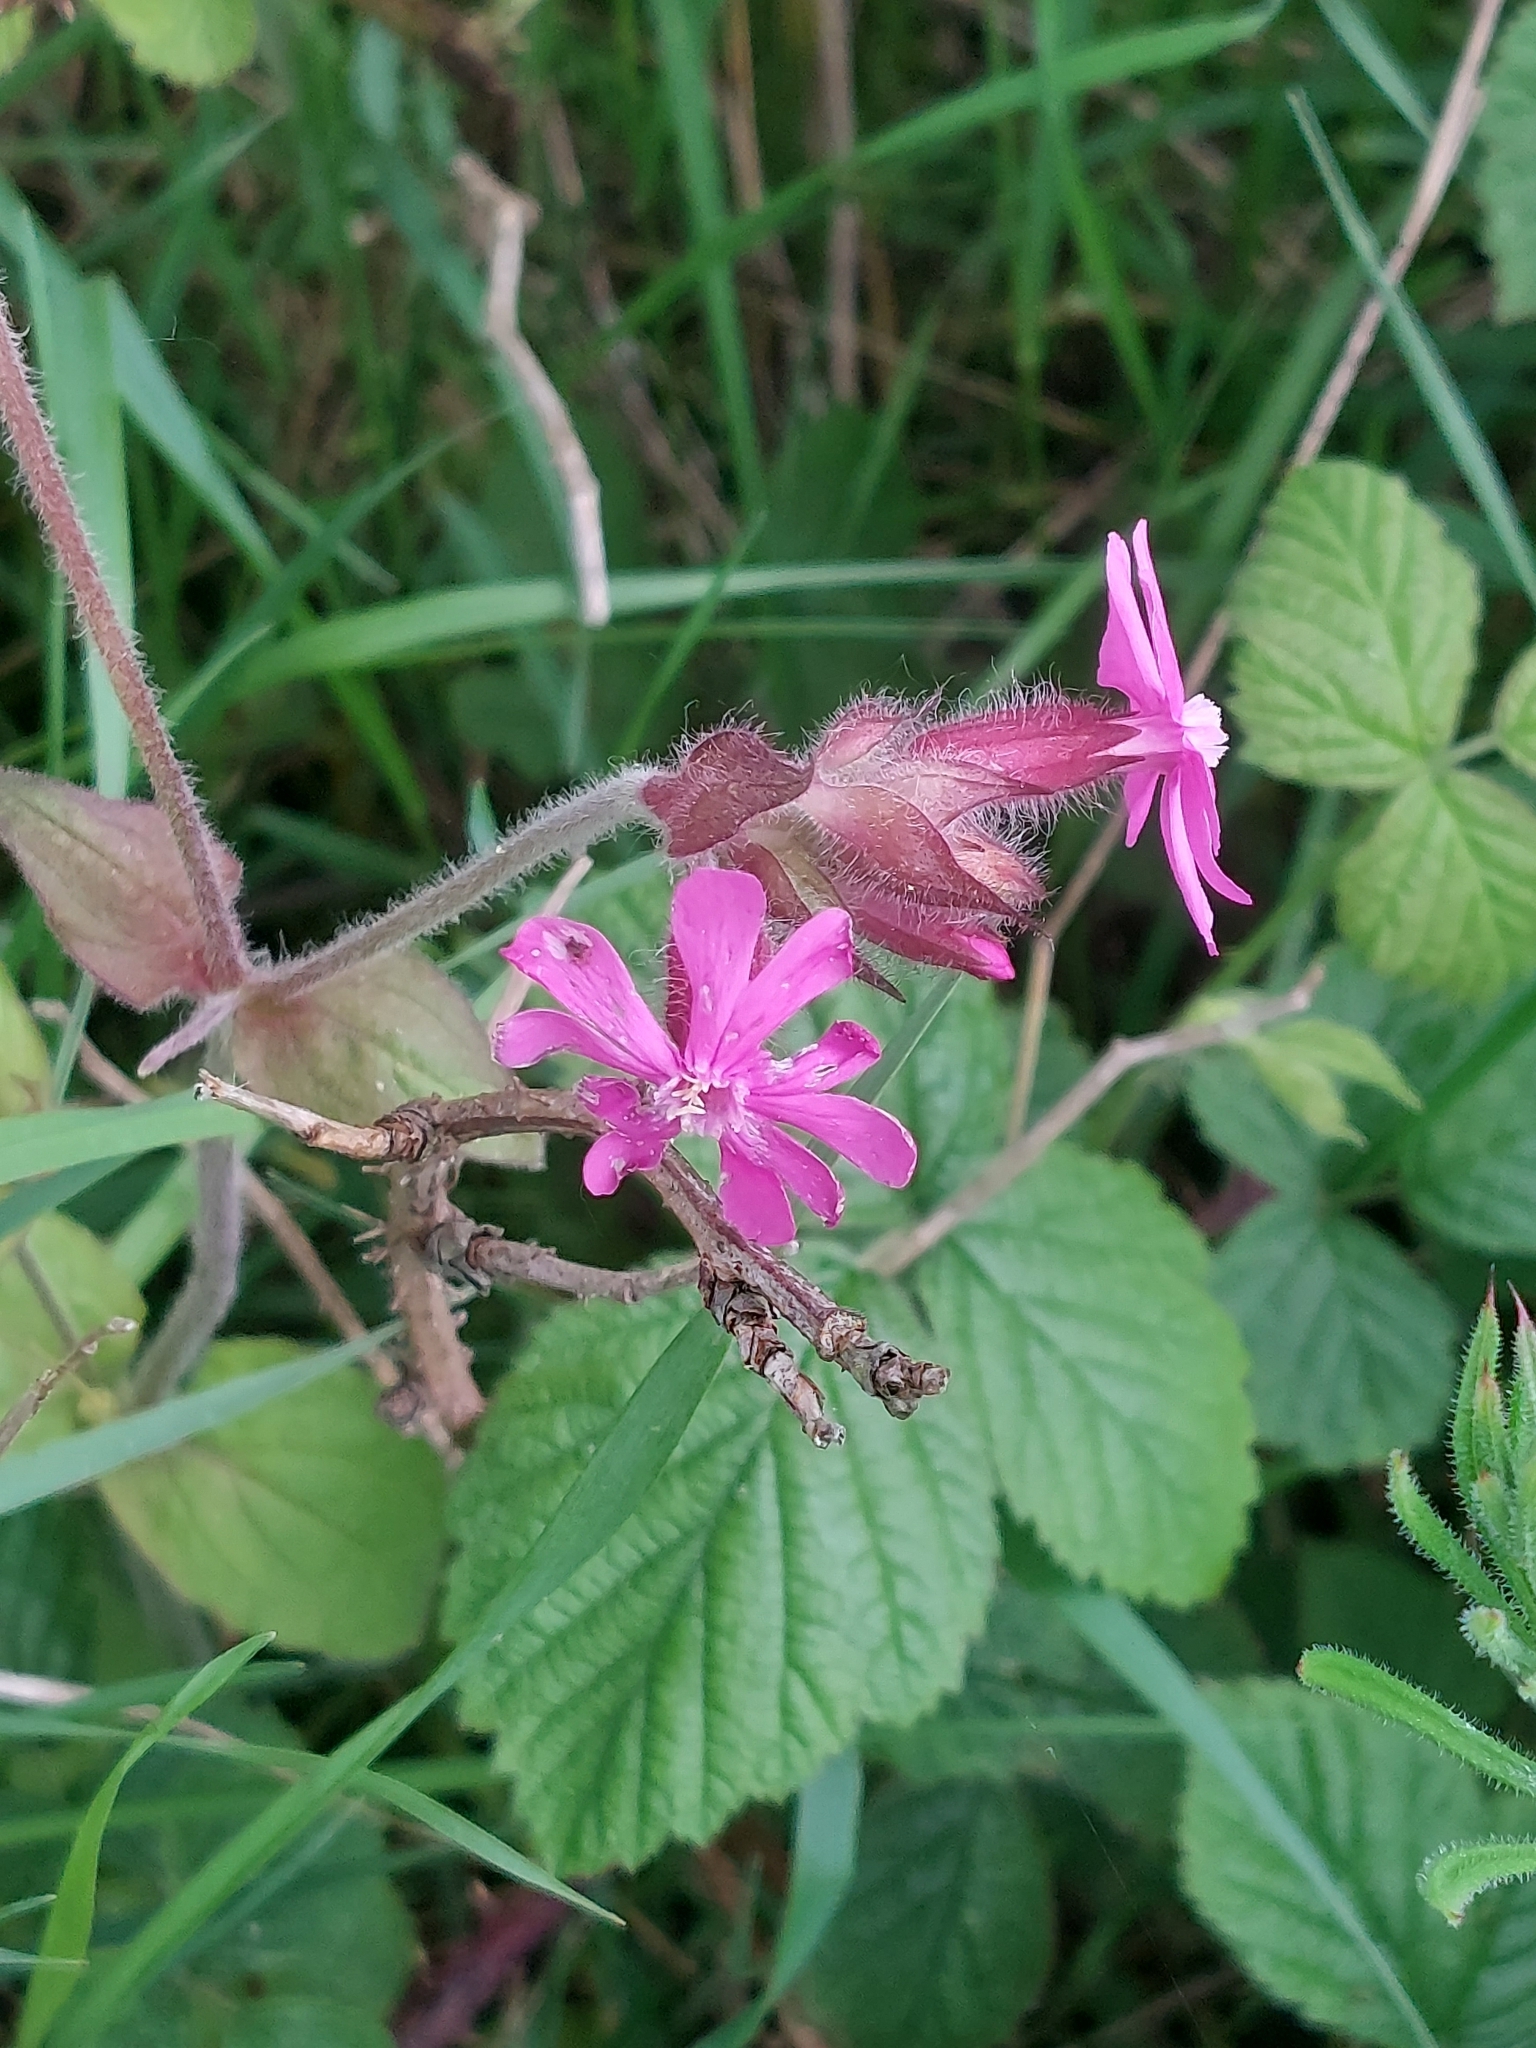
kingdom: Plantae
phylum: Tracheophyta
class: Magnoliopsida
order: Caryophyllales
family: Caryophyllaceae
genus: Silene
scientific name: Silene dioica
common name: Red campion
